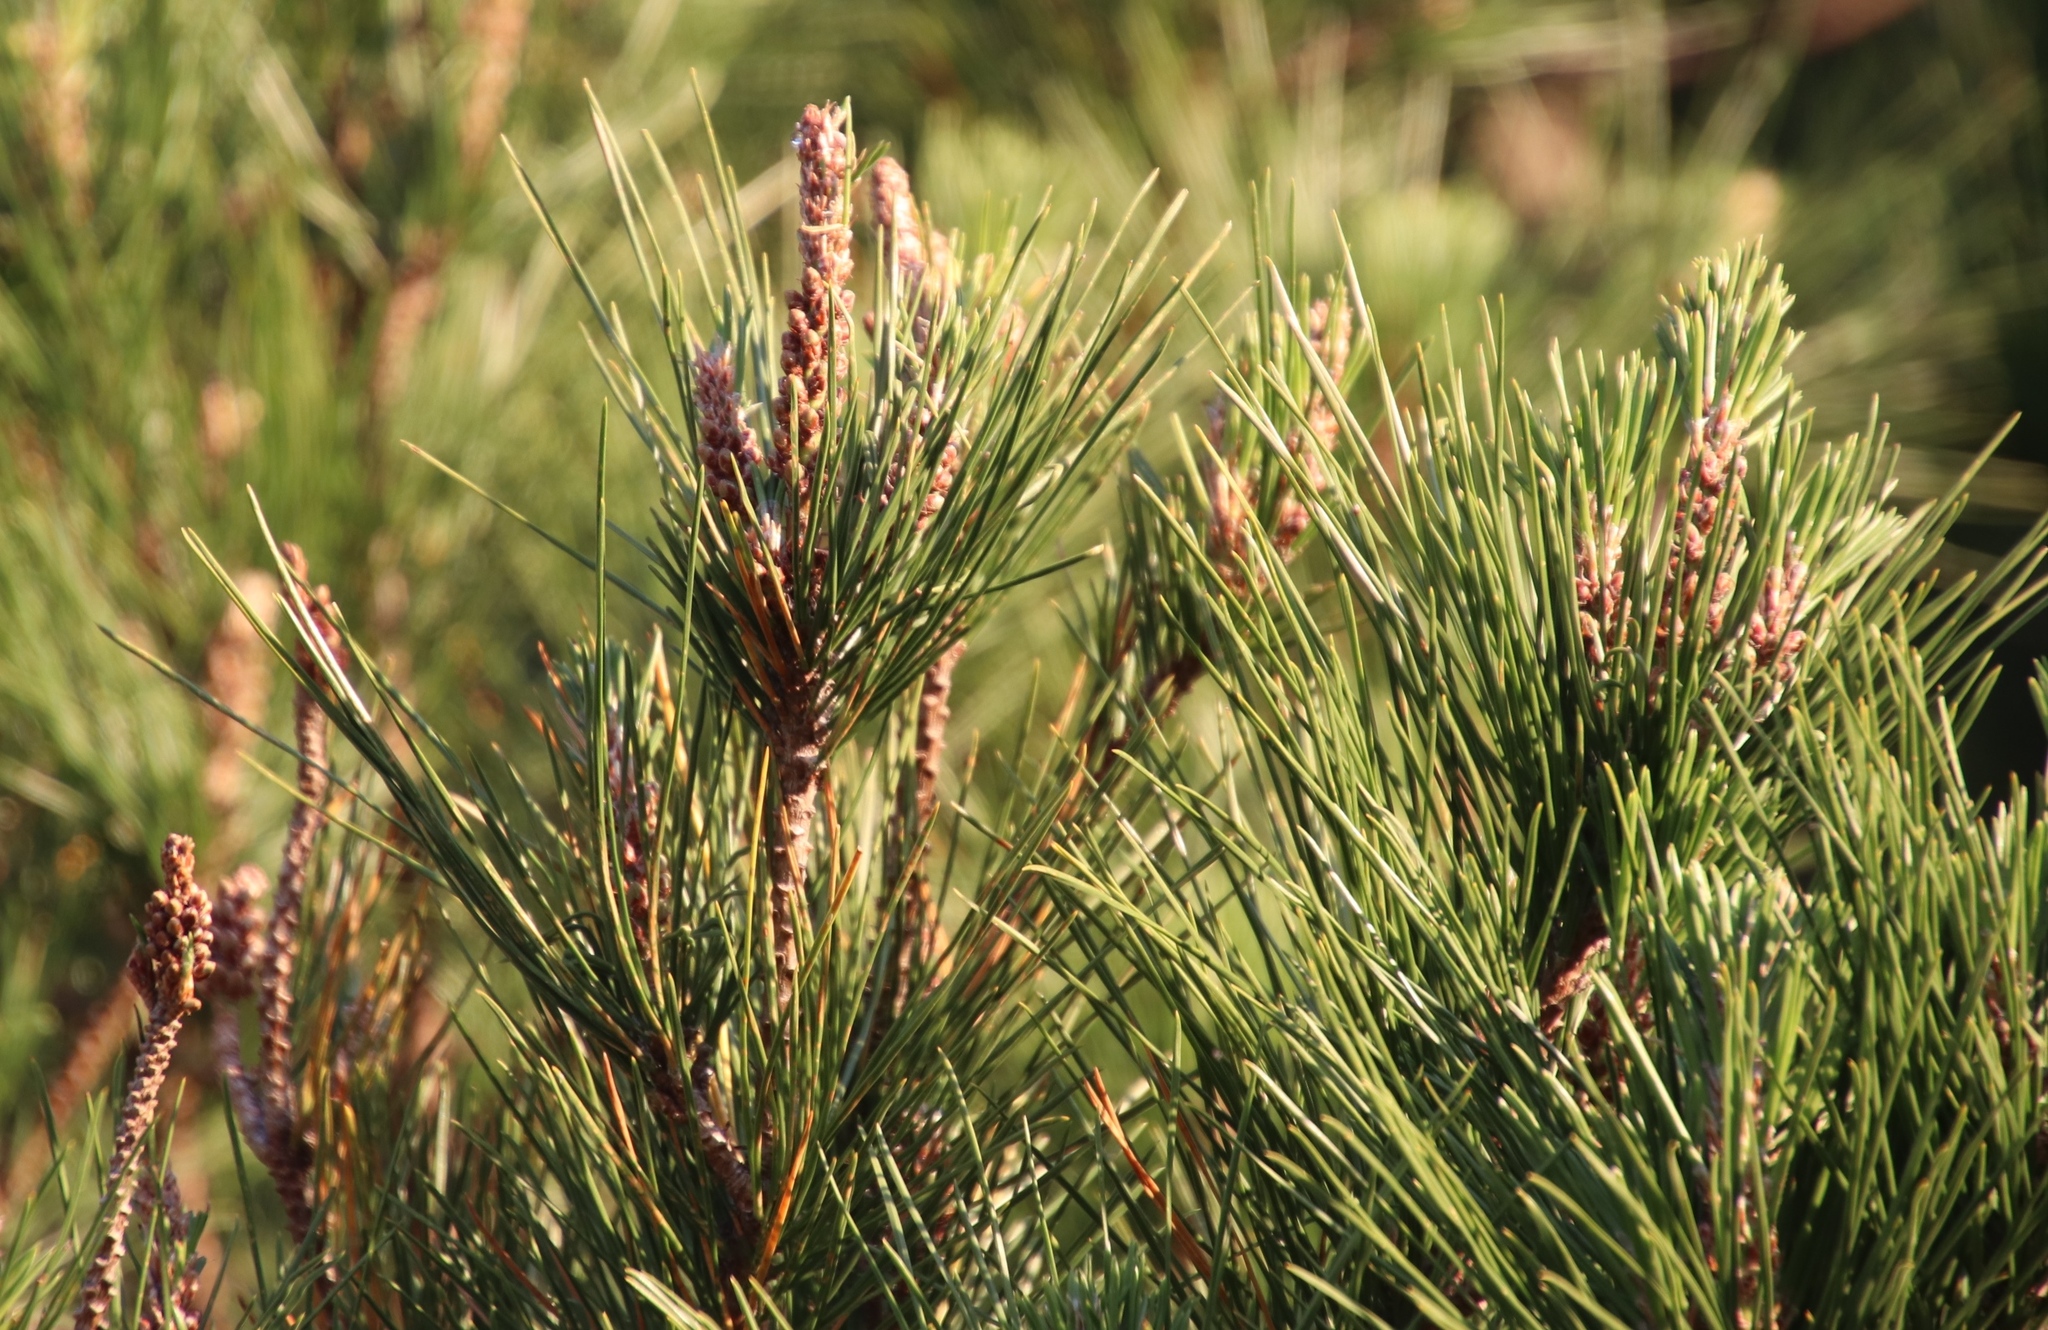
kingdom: Plantae
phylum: Tracheophyta
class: Pinopsida
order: Pinales
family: Pinaceae
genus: Pinus
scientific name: Pinus radiata
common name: Monterey pine
